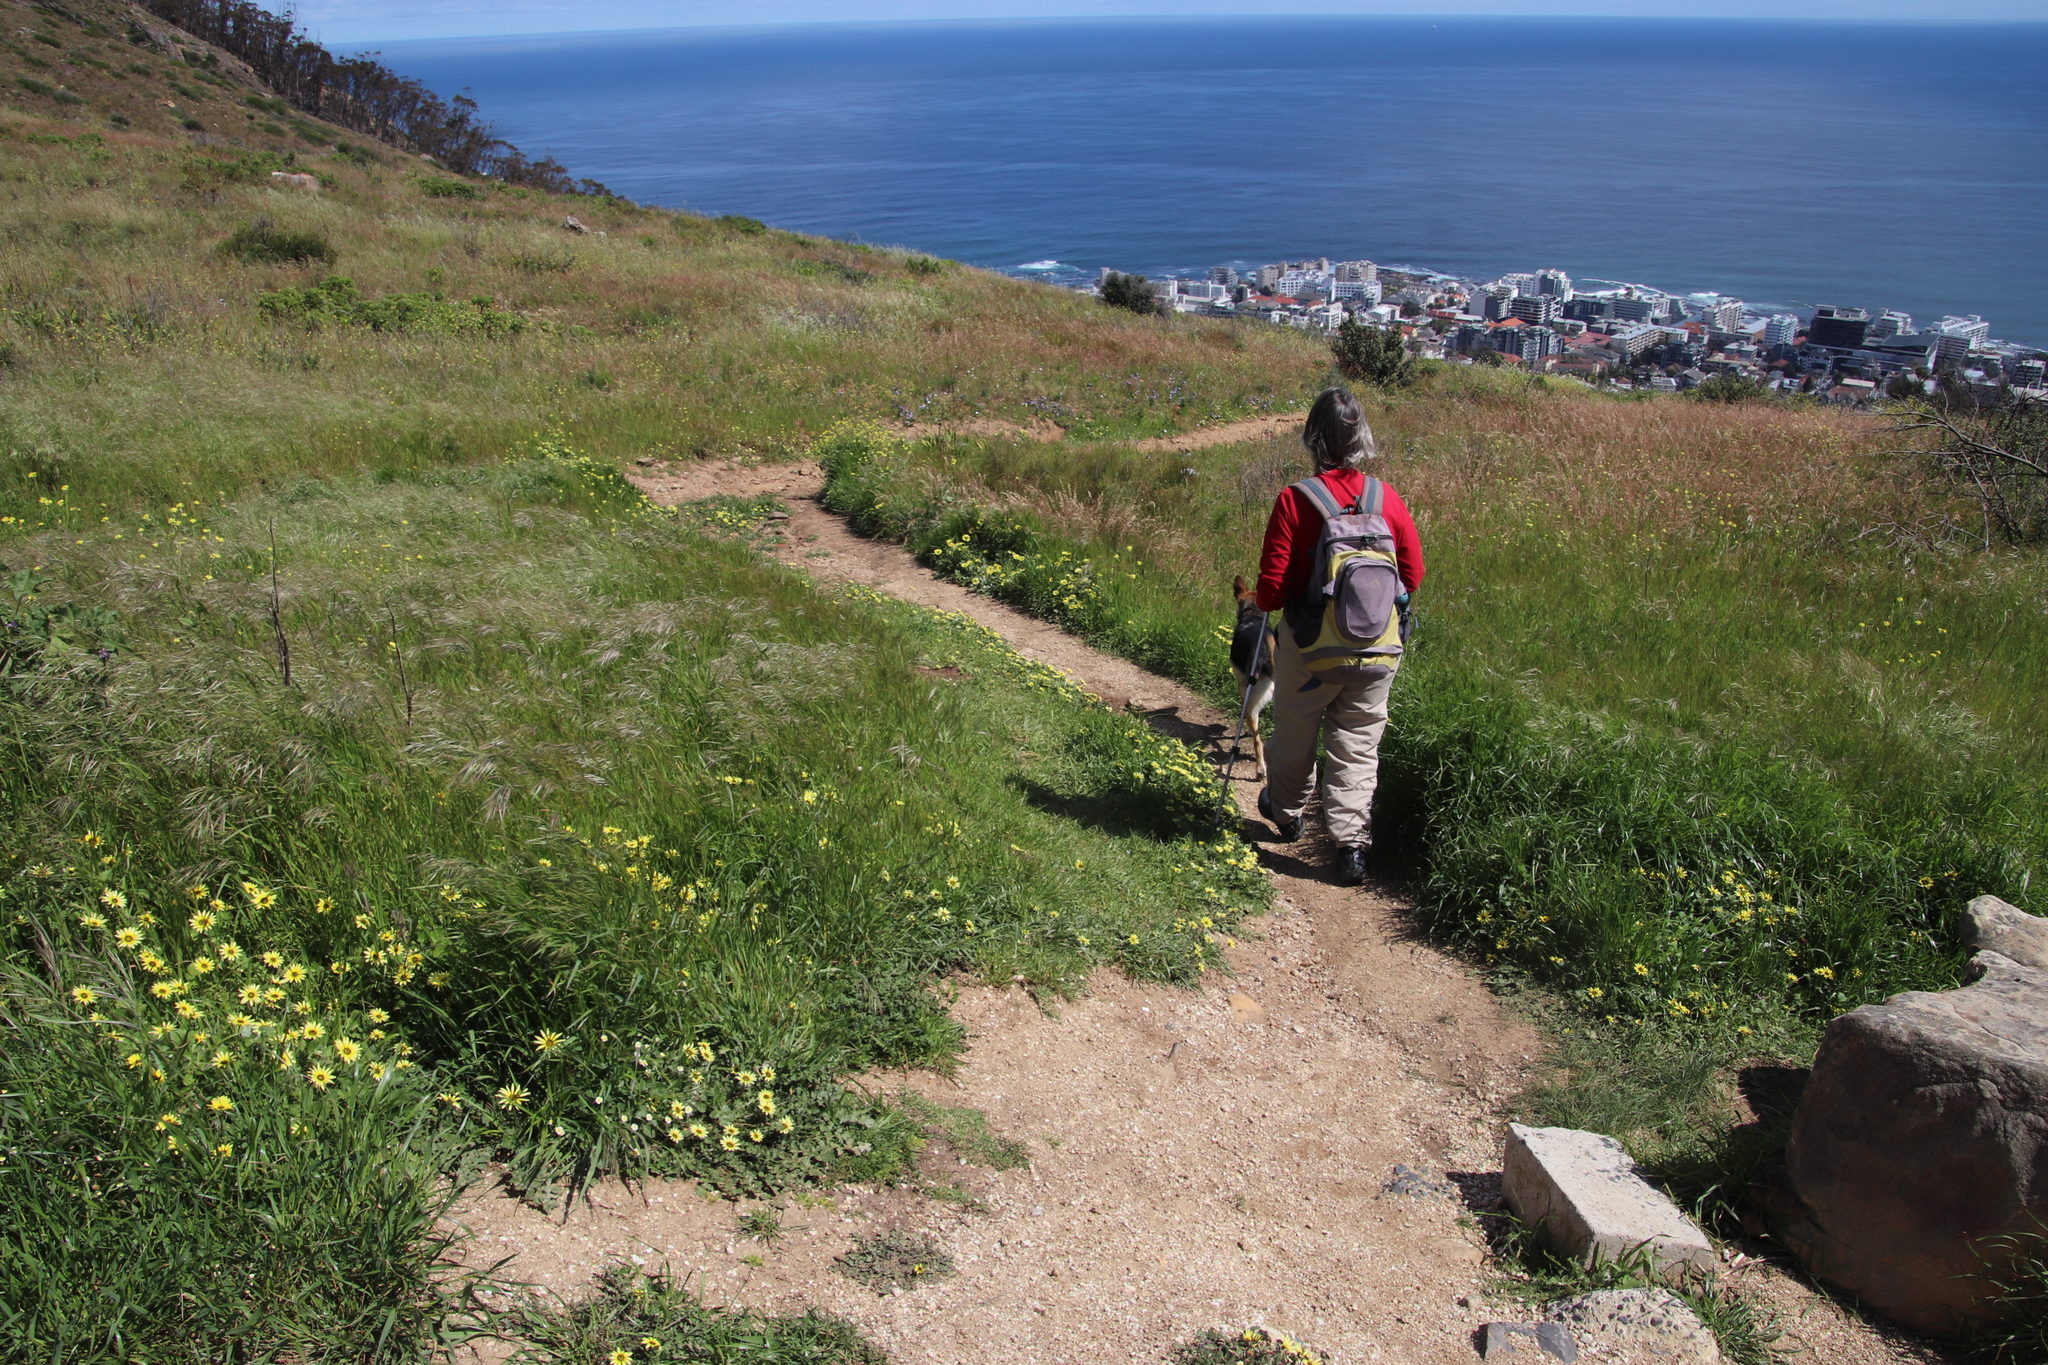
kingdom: Plantae
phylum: Tracheophyta
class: Magnoliopsida
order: Asterales
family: Asteraceae
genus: Arctotheca
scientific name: Arctotheca calendula
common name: Capeweed
